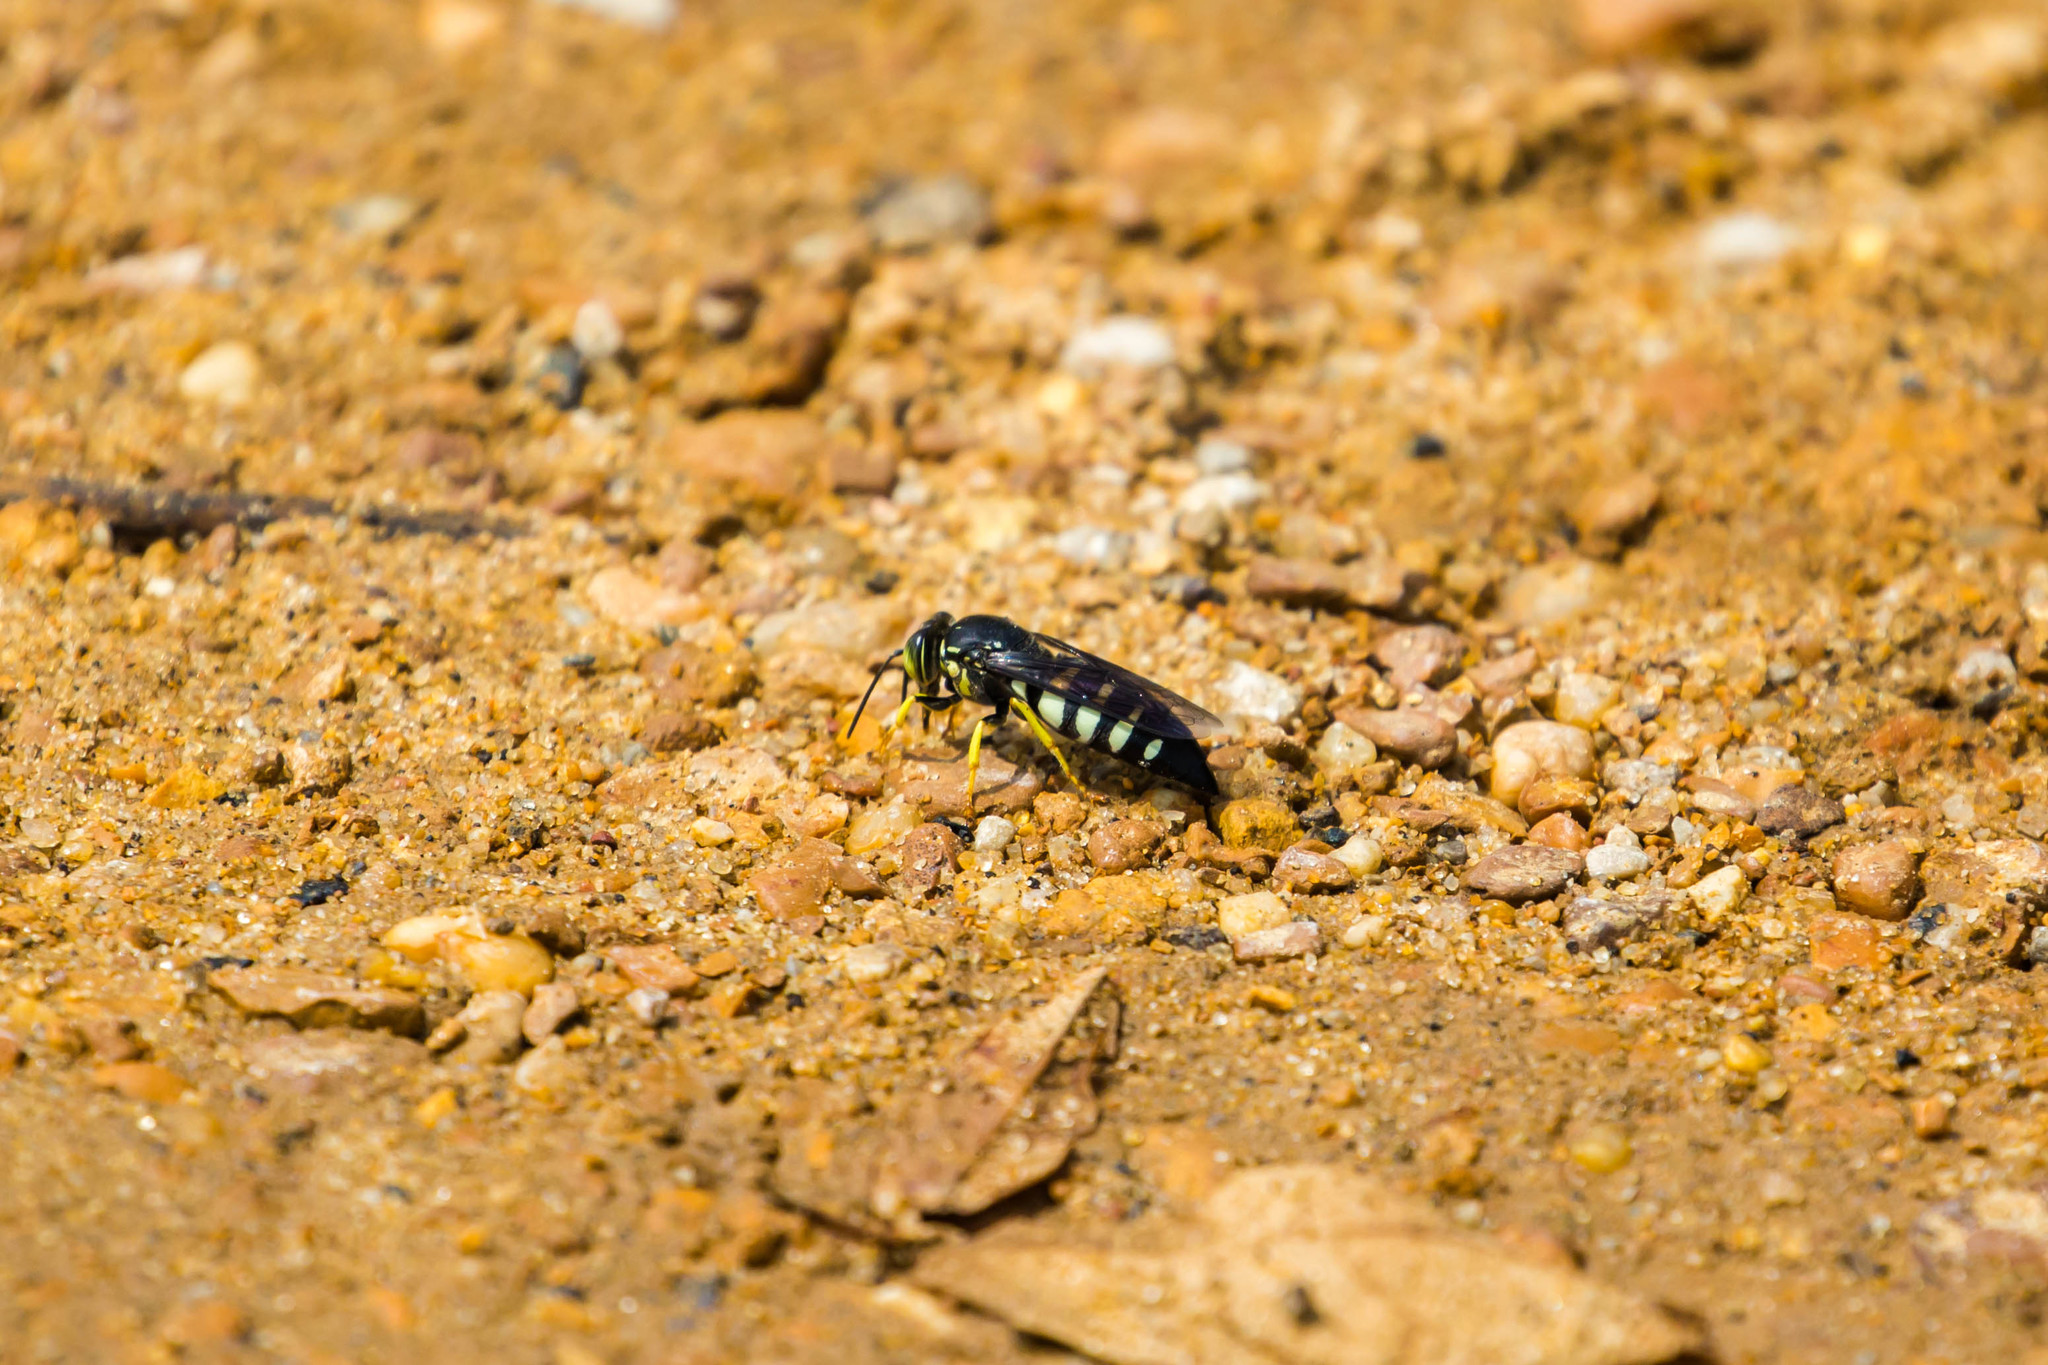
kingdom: Animalia
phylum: Arthropoda
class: Insecta
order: Hymenoptera
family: Crabronidae
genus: Bicyrtes
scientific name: Bicyrtes quadrifasciatus
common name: Four-banded stink bug hunter wasp
